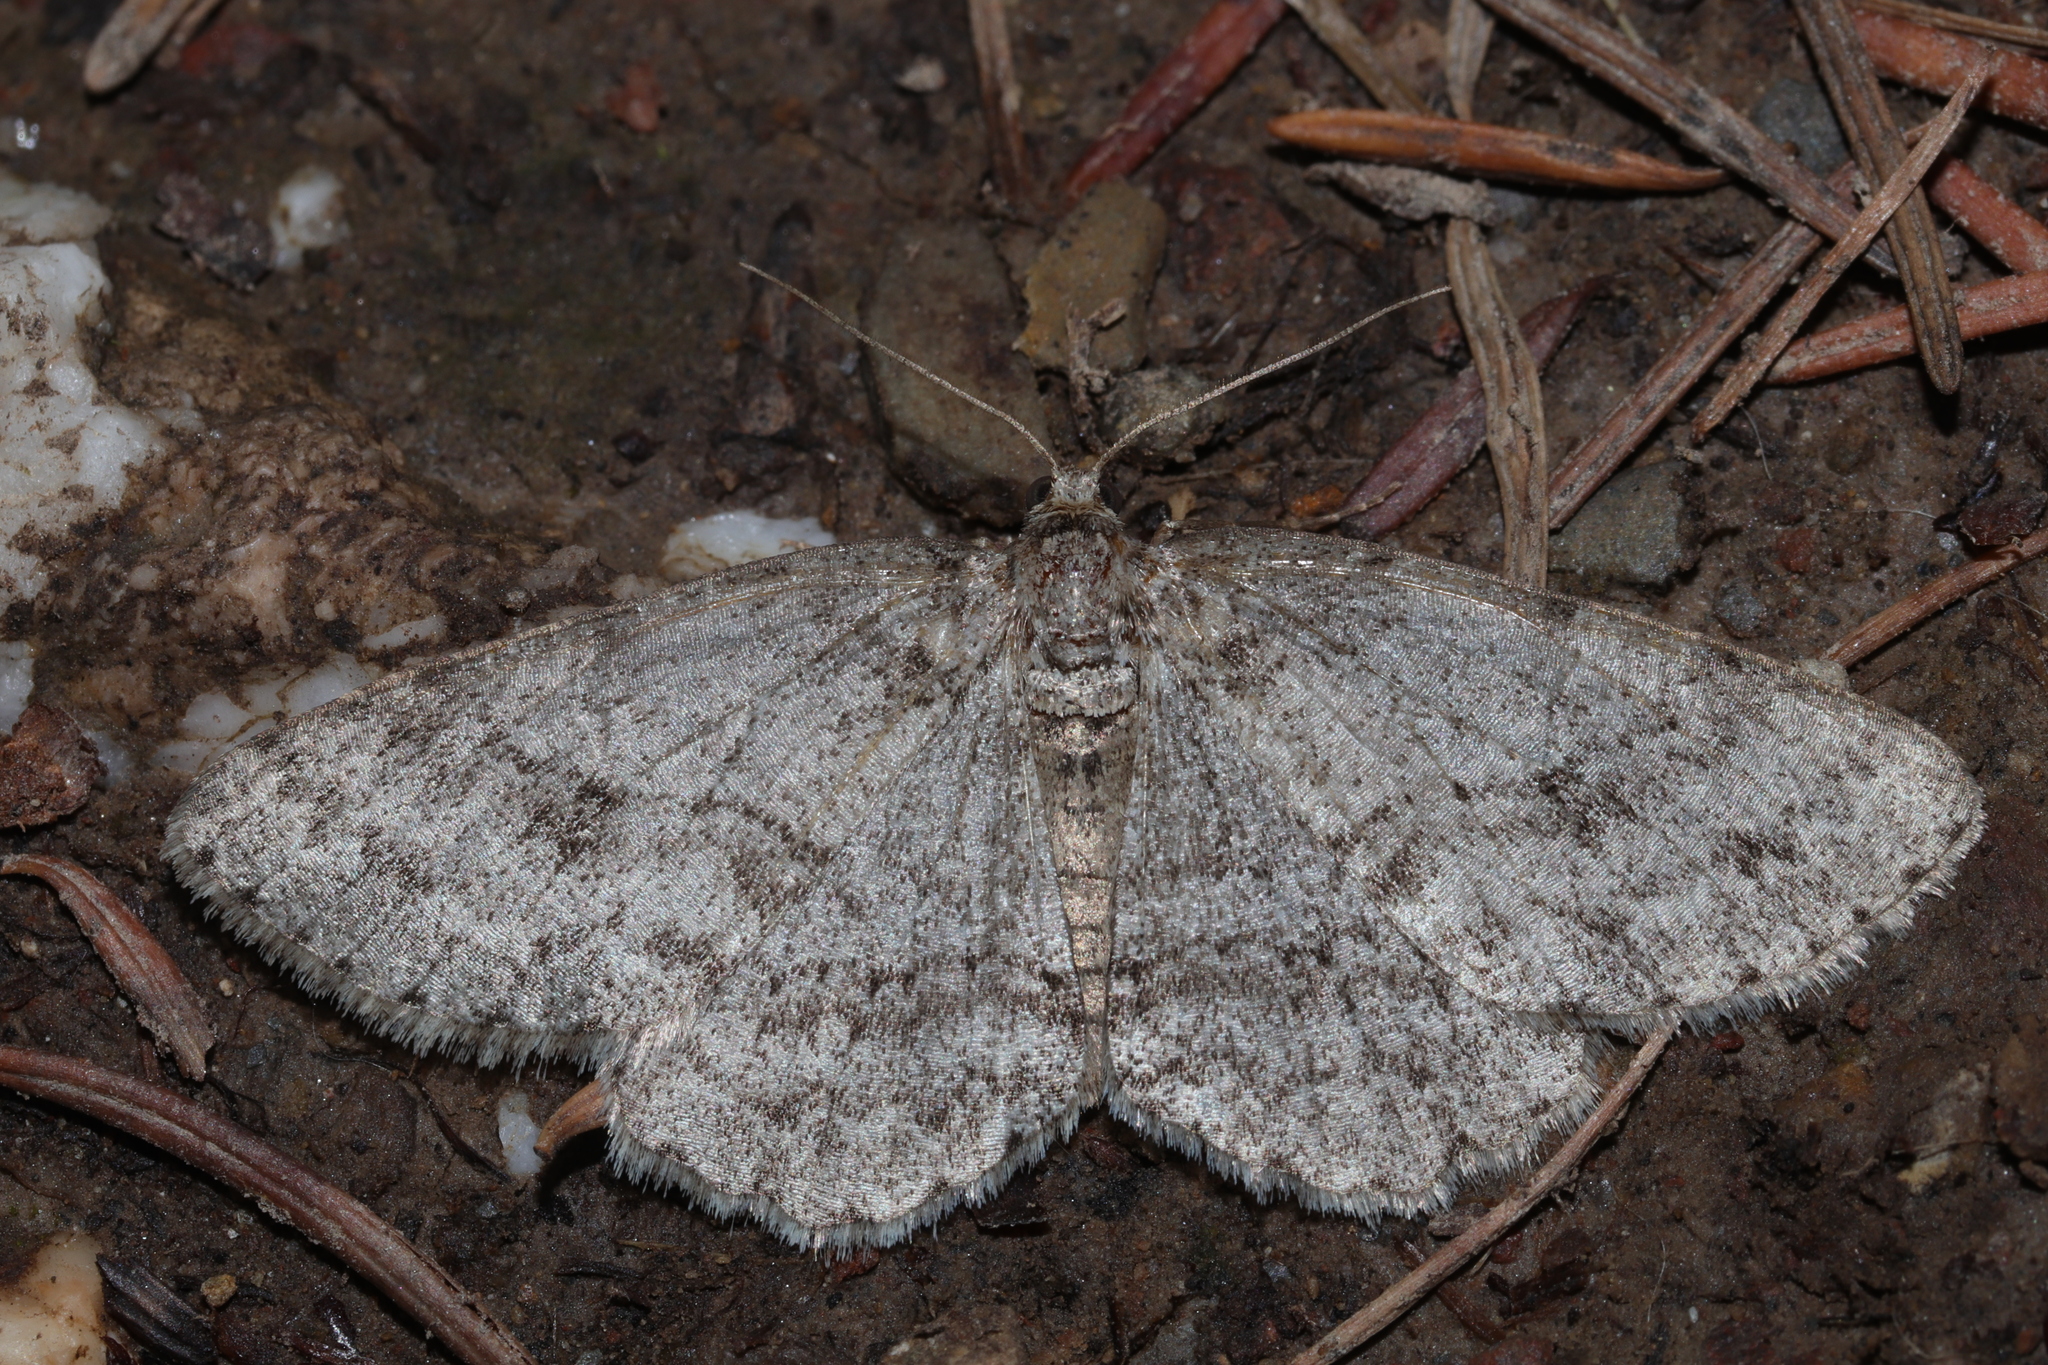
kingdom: Animalia
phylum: Arthropoda
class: Insecta
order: Lepidoptera
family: Geometridae
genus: Ectropis
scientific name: Ectropis crepuscularia
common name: Engrailed
